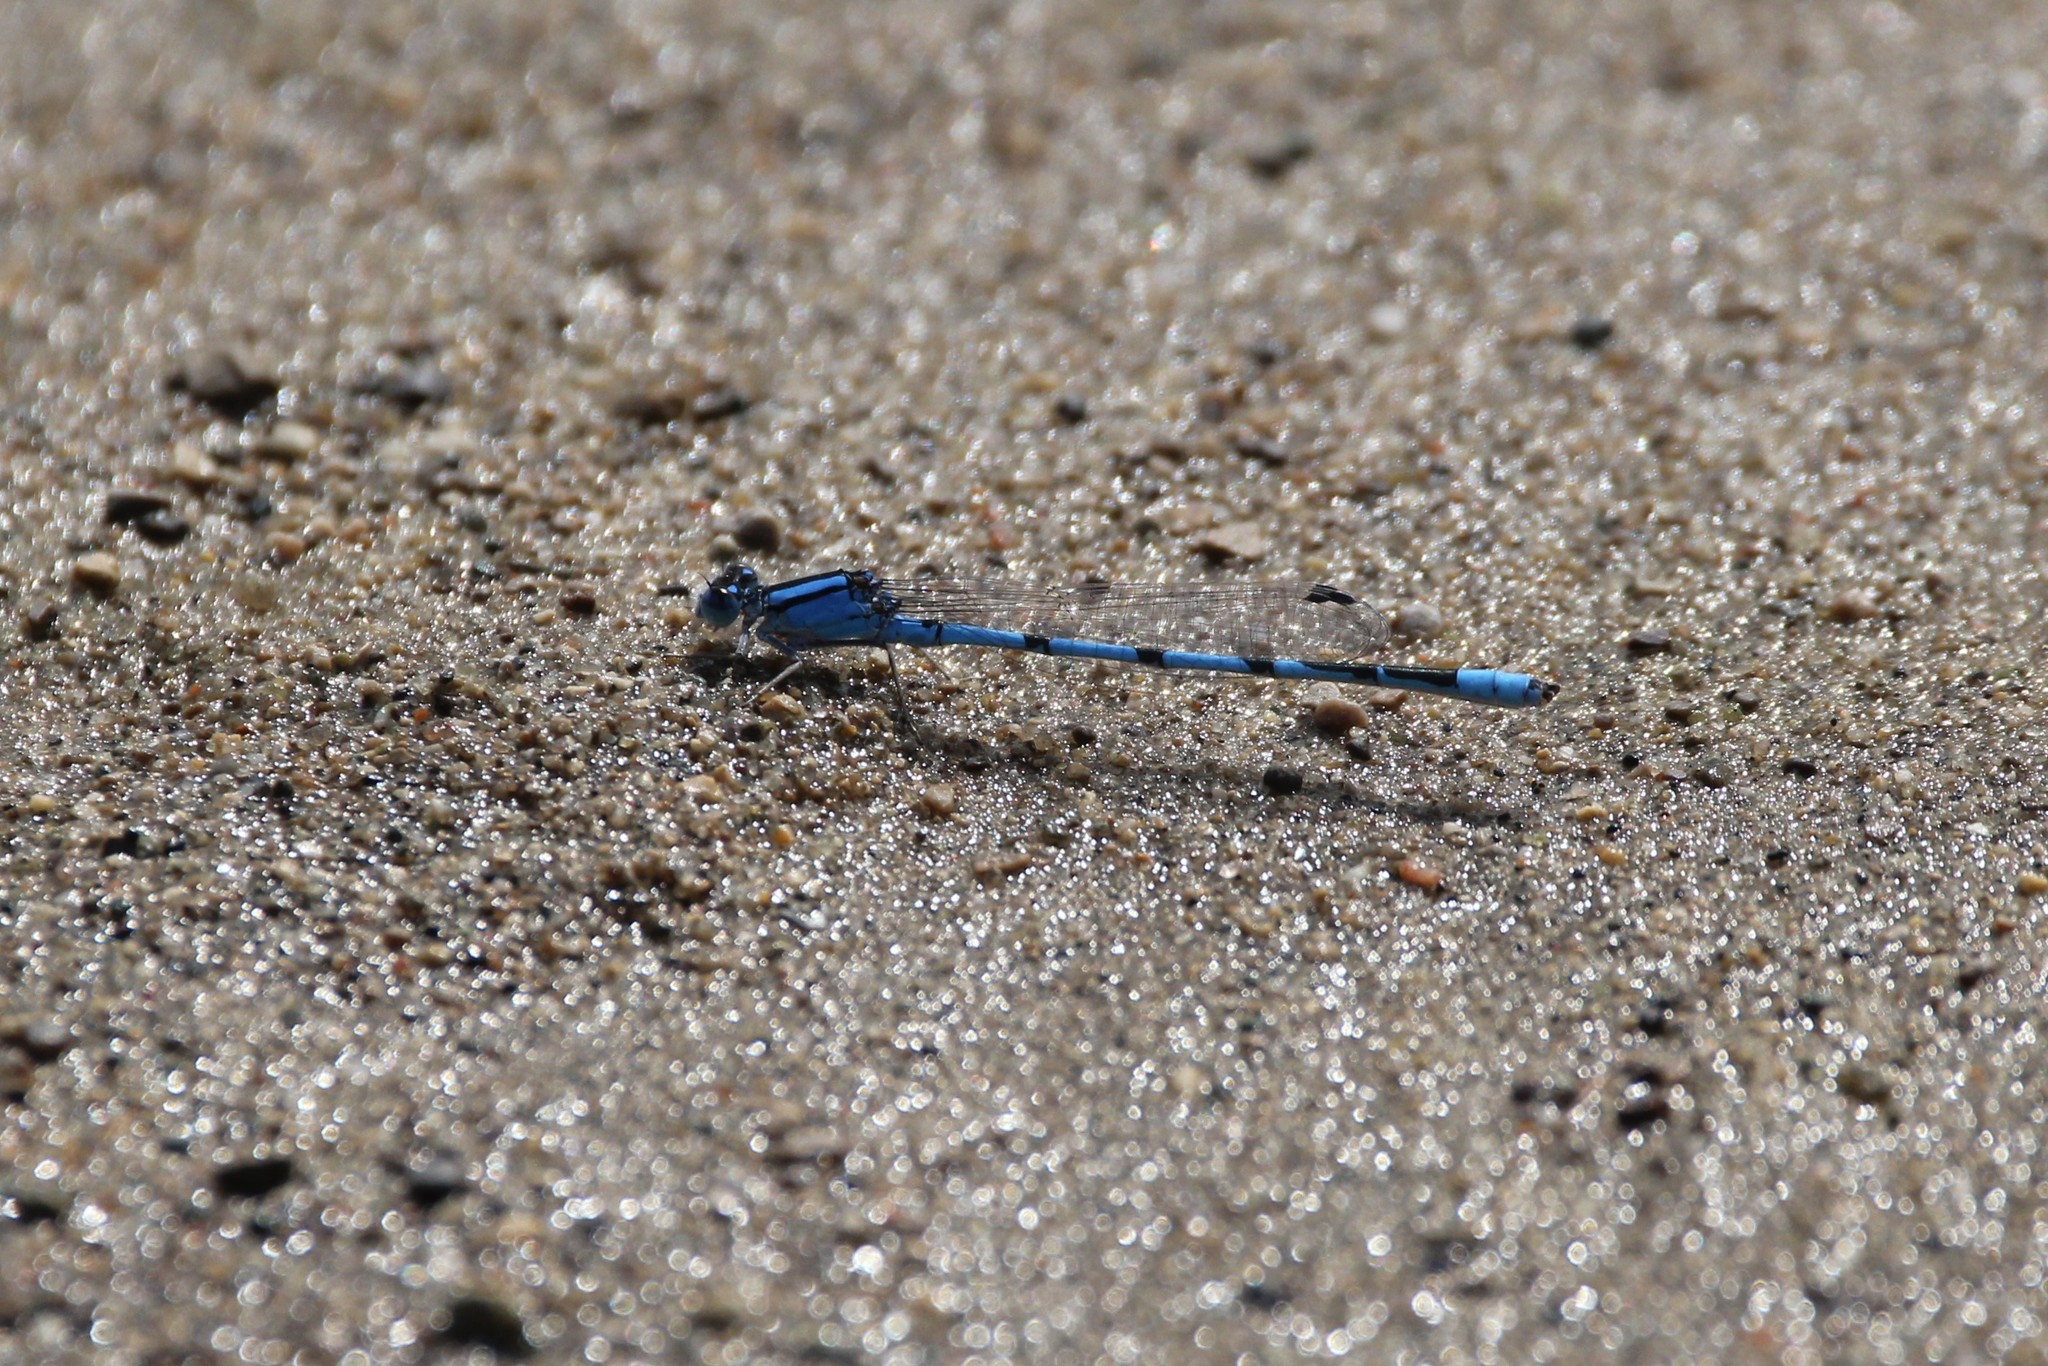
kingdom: Animalia
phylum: Arthropoda
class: Insecta
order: Odonata
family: Coenagrionidae
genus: Enallagma
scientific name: Enallagma civile
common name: Damselfly
